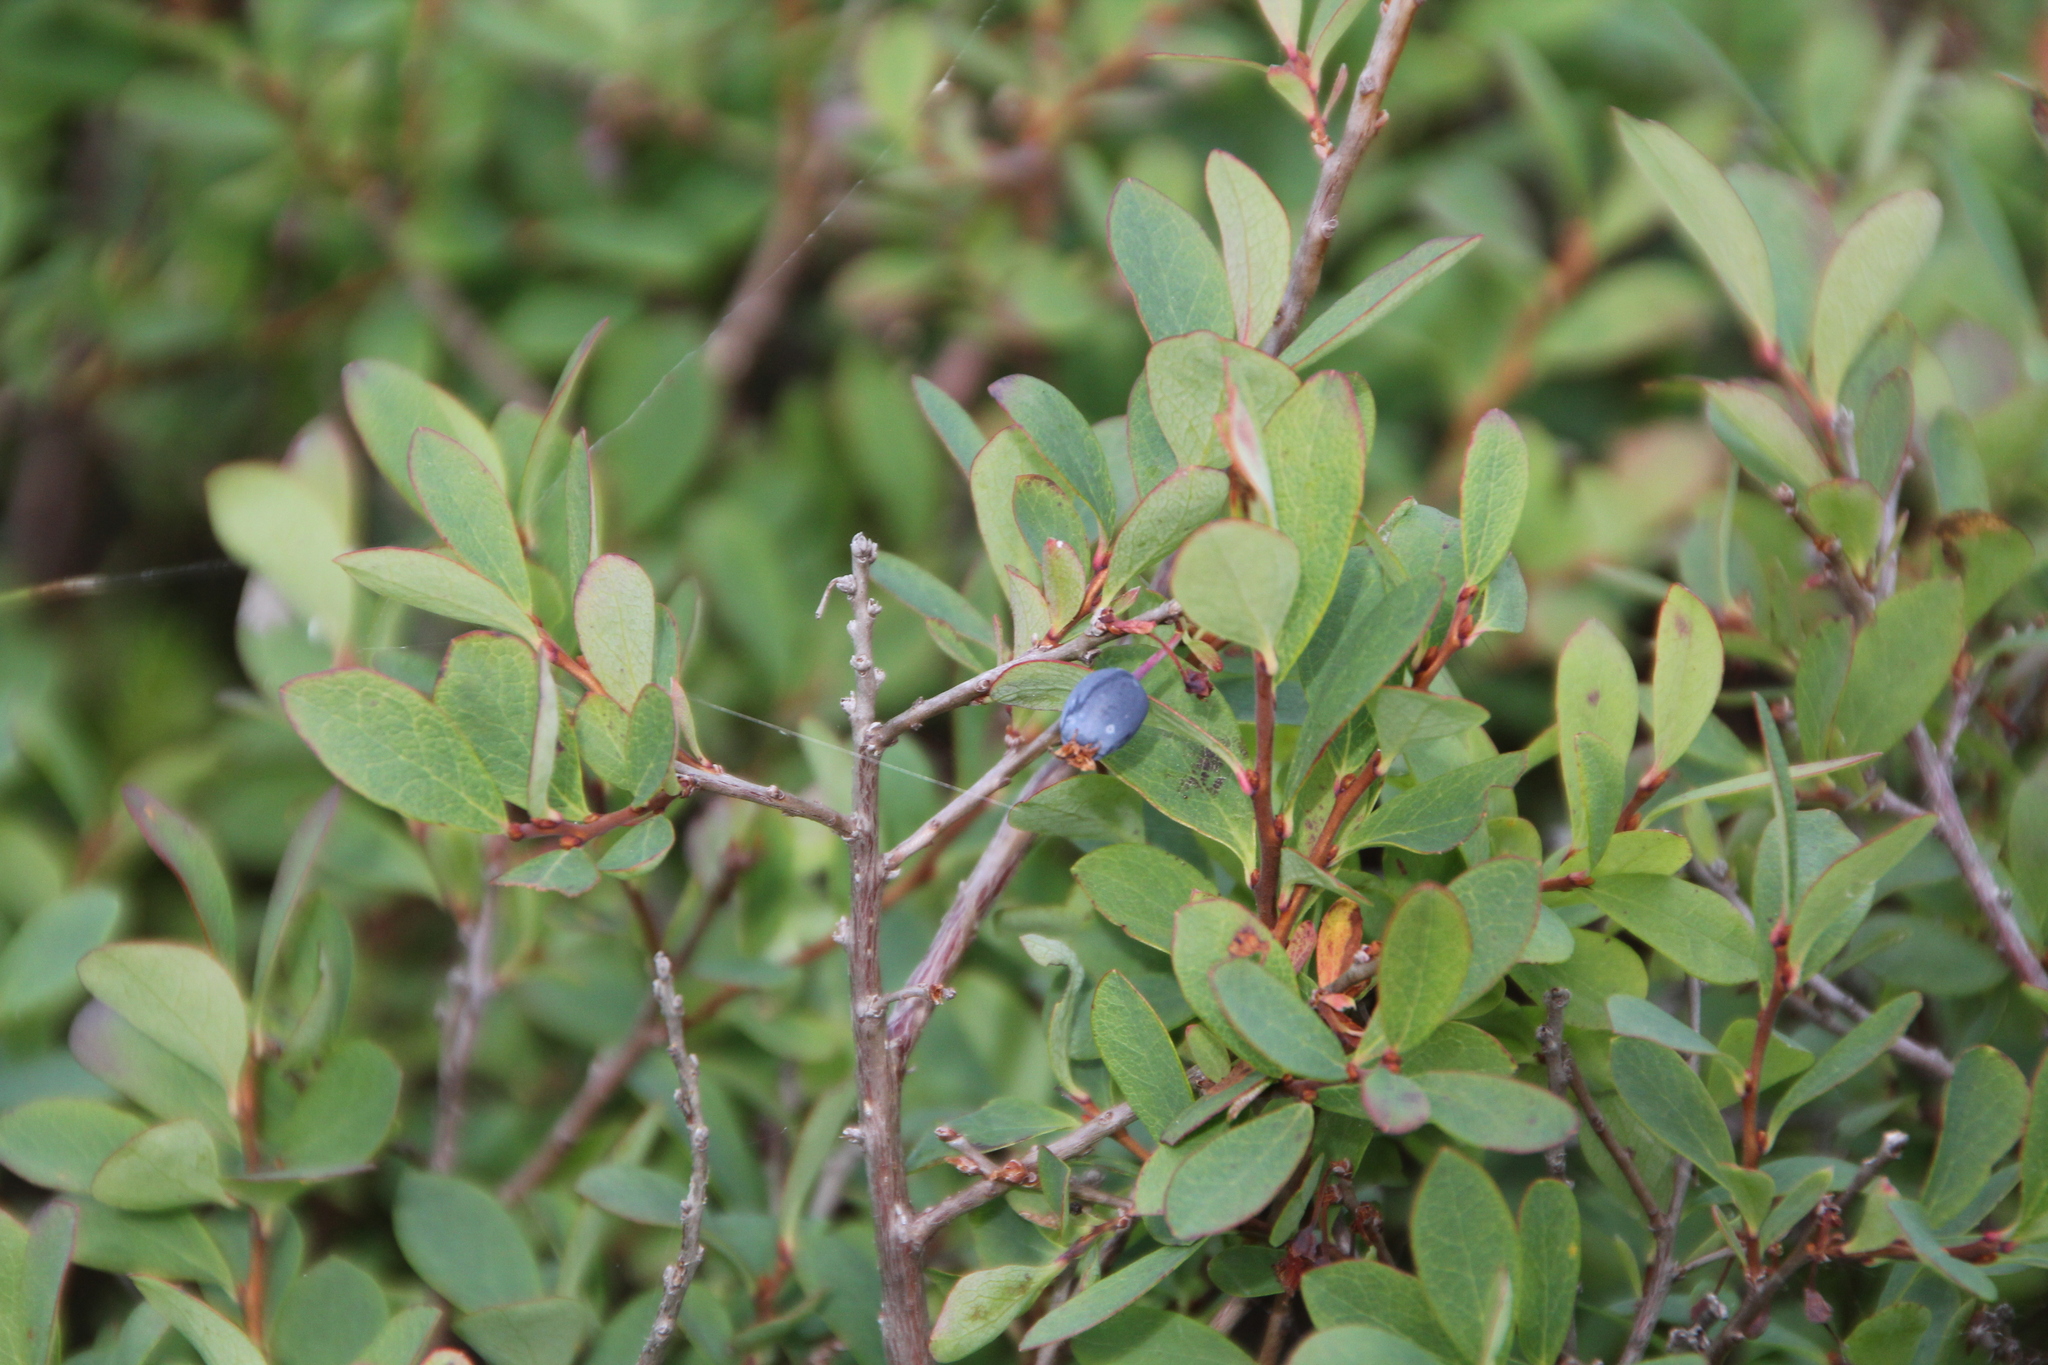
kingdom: Plantae
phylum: Tracheophyta
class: Magnoliopsida
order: Ericales
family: Ericaceae
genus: Vaccinium
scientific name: Vaccinium uliginosum
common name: Bog bilberry
